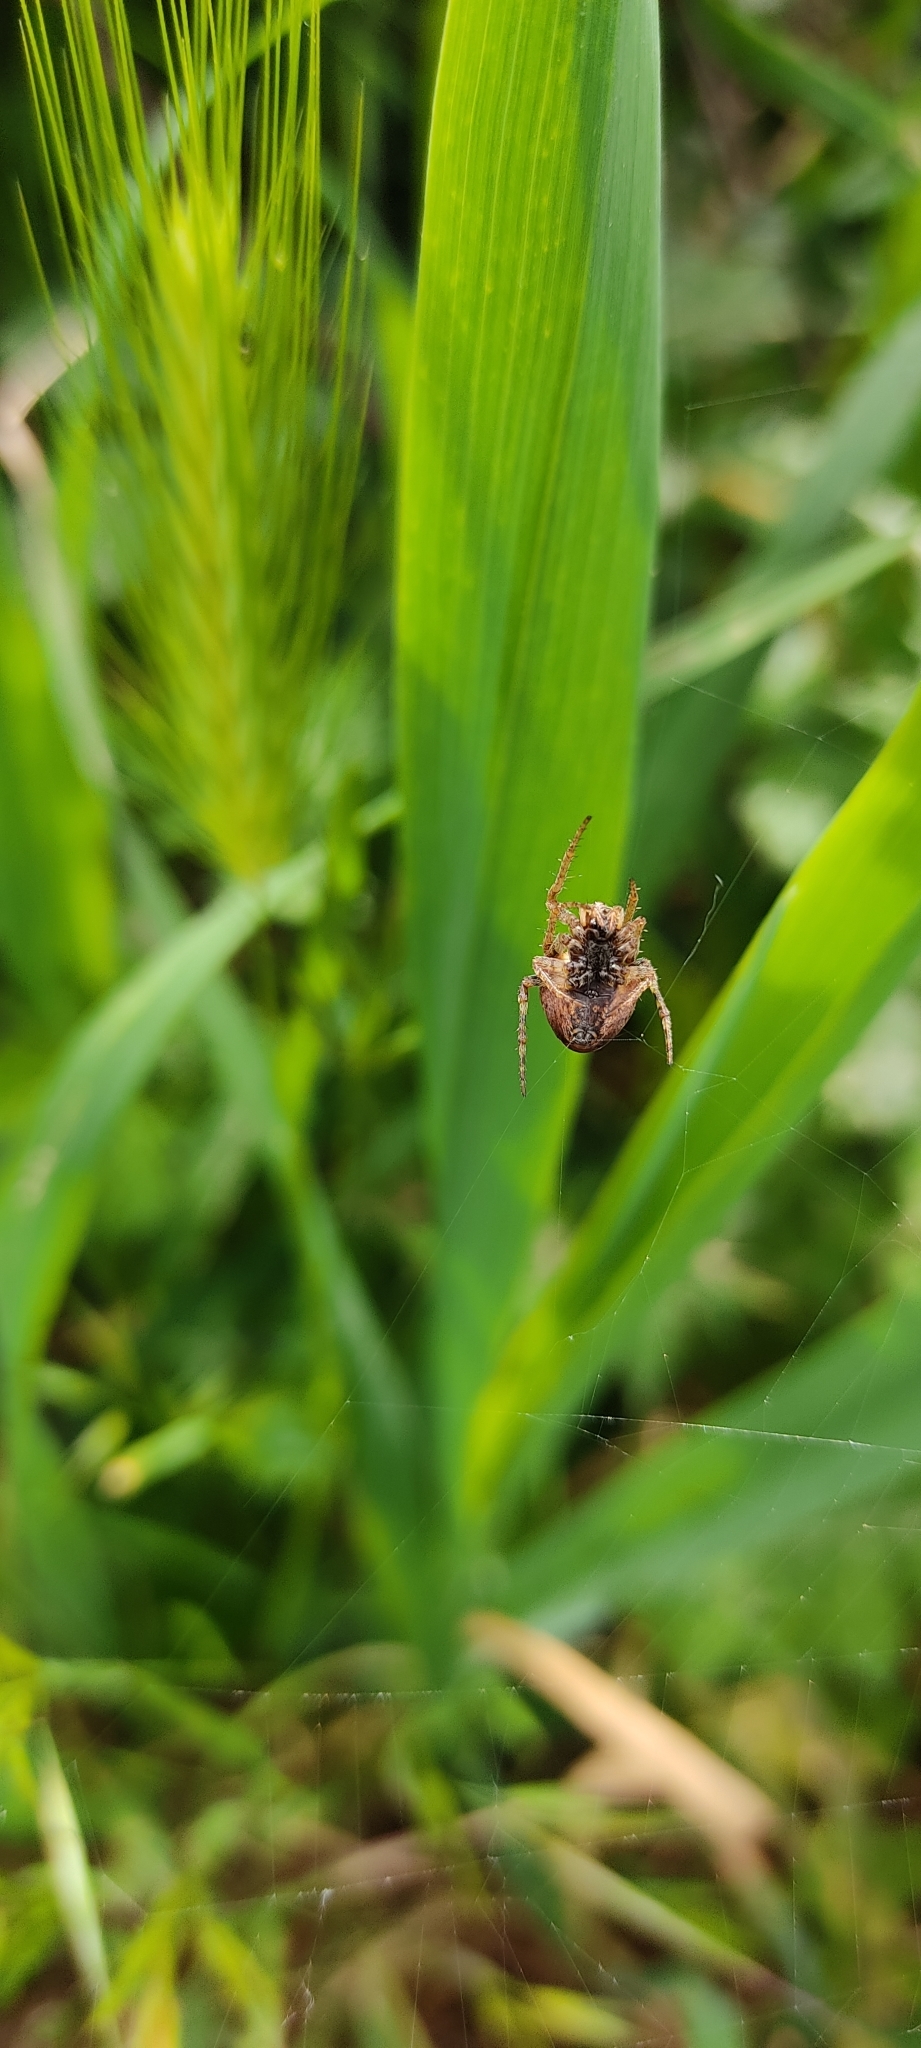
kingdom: Animalia
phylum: Arthropoda
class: Arachnida
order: Araneae
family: Araneidae
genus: Gibbaranea
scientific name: Gibbaranea bituberculata
